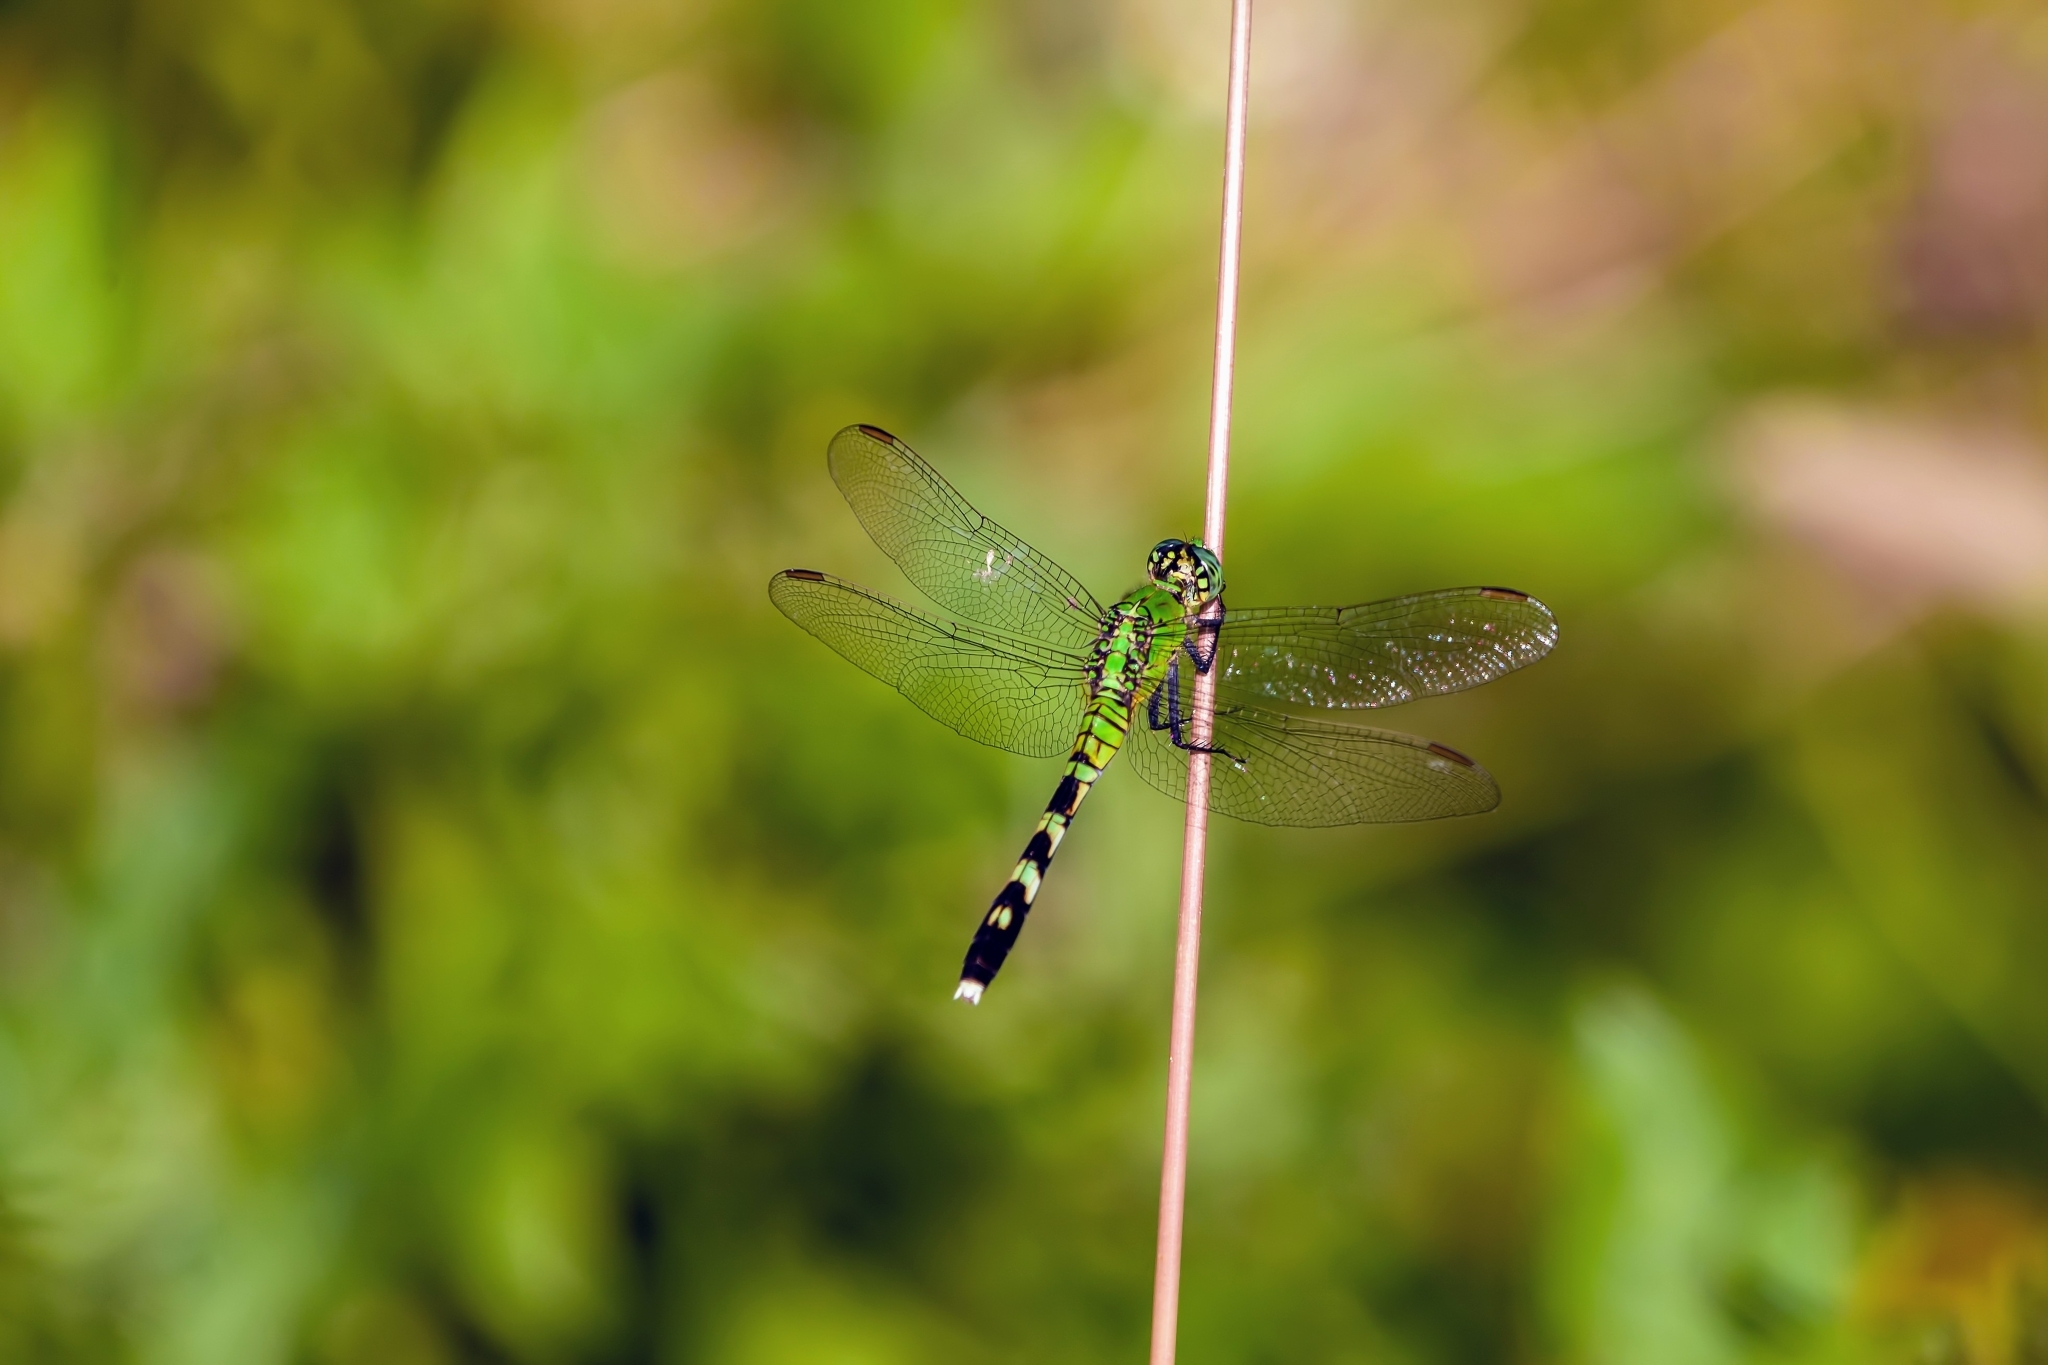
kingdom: Animalia
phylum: Arthropoda
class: Insecta
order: Odonata
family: Libellulidae
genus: Erythemis
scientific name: Erythemis simplicicollis
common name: Eastern pondhawk
